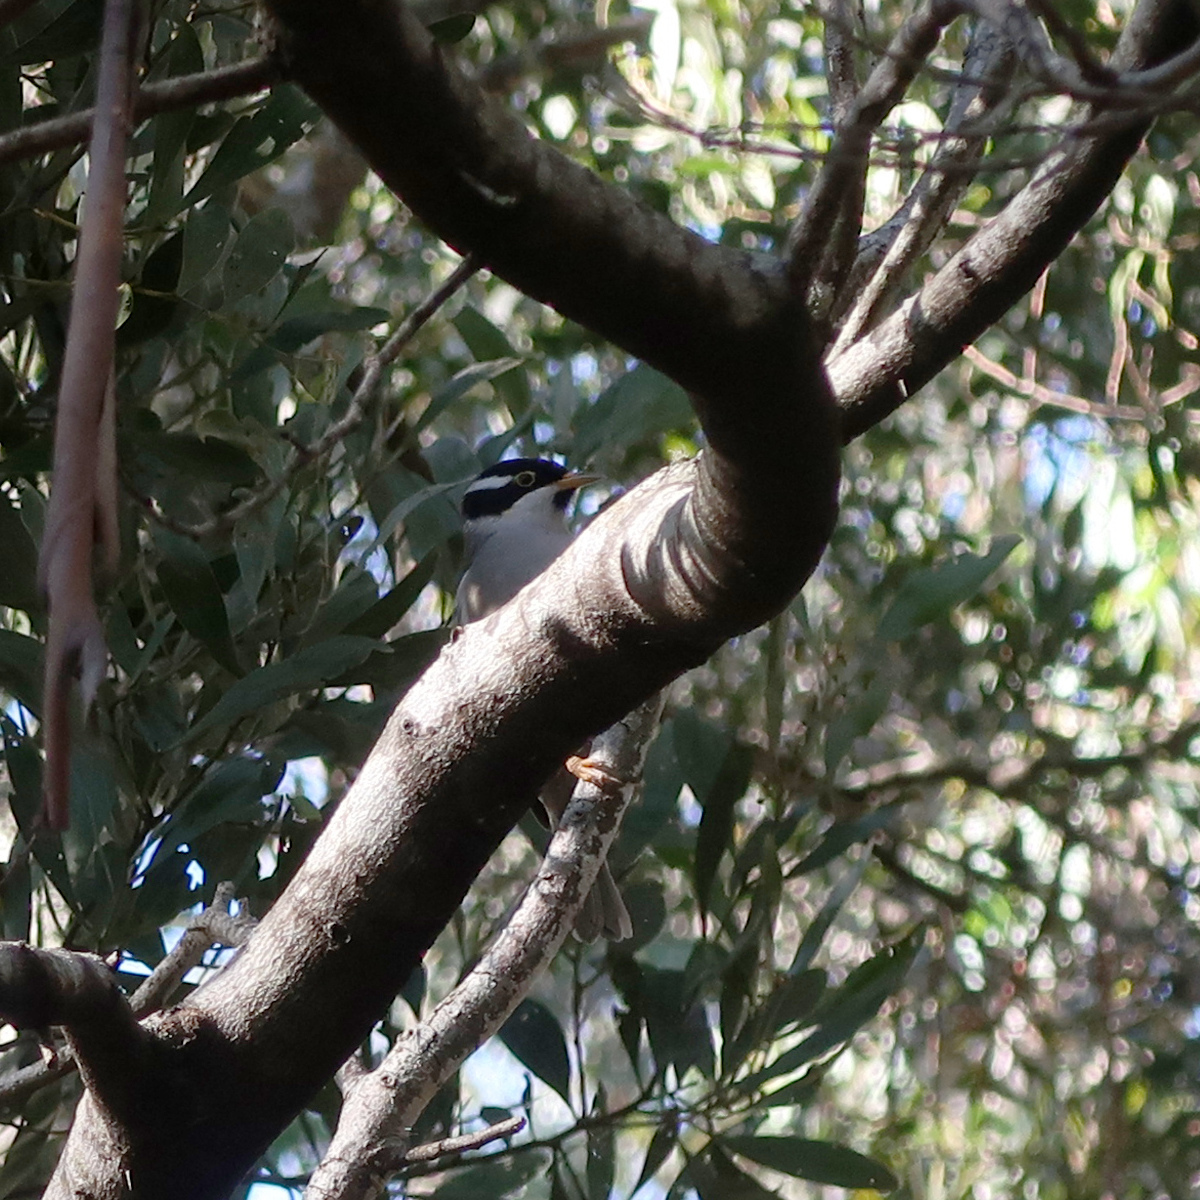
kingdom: Animalia
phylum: Chordata
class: Aves
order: Passeriformes
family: Meliphagidae
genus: Melithreptus
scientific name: Melithreptus validirostris
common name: Strong-billed honeyeater
